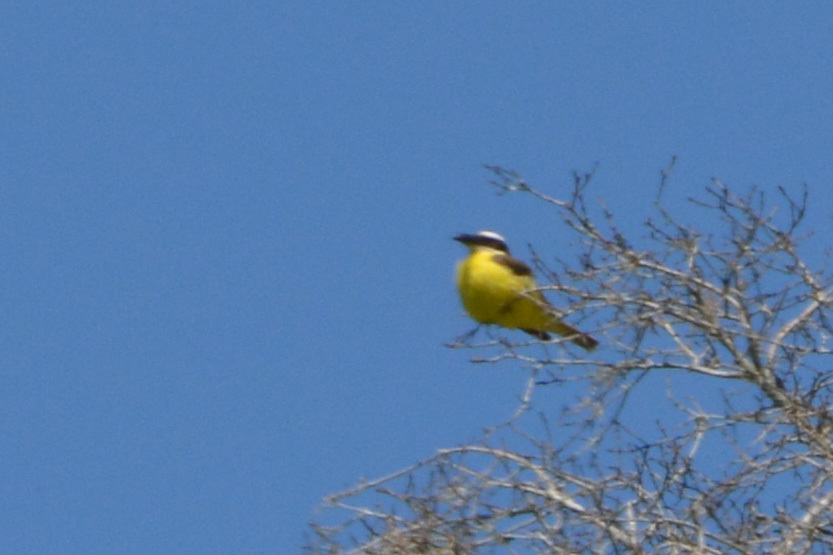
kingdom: Animalia
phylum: Chordata
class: Aves
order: Passeriformes
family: Tyrannidae
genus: Megarynchus
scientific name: Megarynchus pitangua
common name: Boat-billed flycatcher
